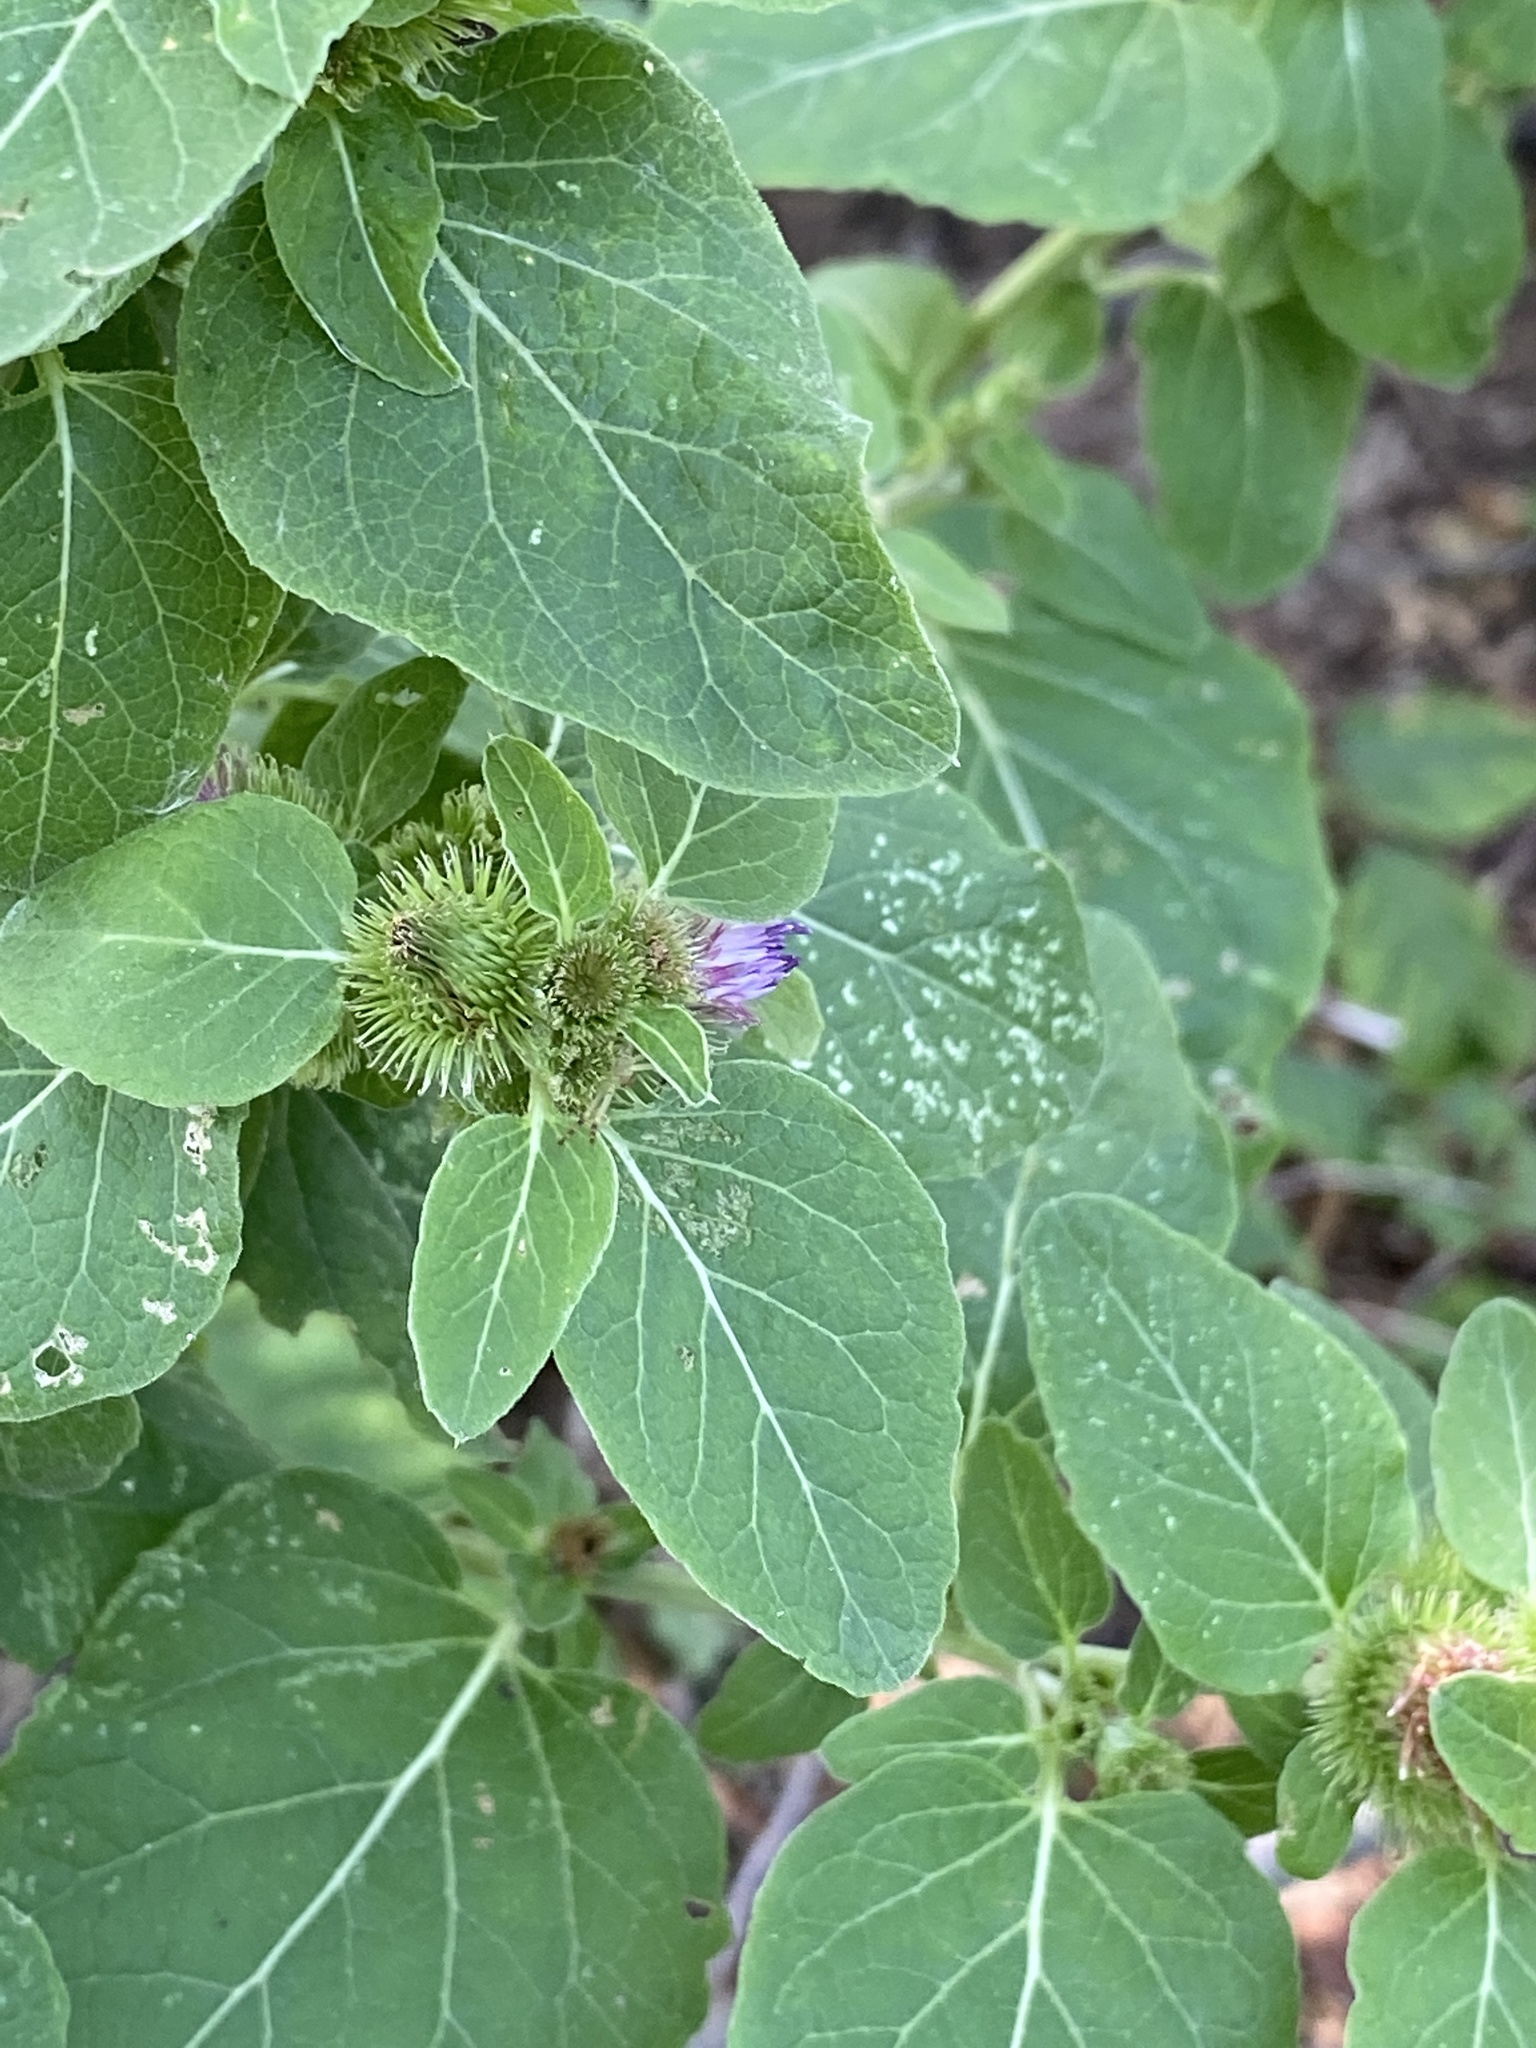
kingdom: Plantae
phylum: Tracheophyta
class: Magnoliopsida
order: Asterales
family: Asteraceae
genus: Arctium
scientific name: Arctium minus
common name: Lesser burdock
